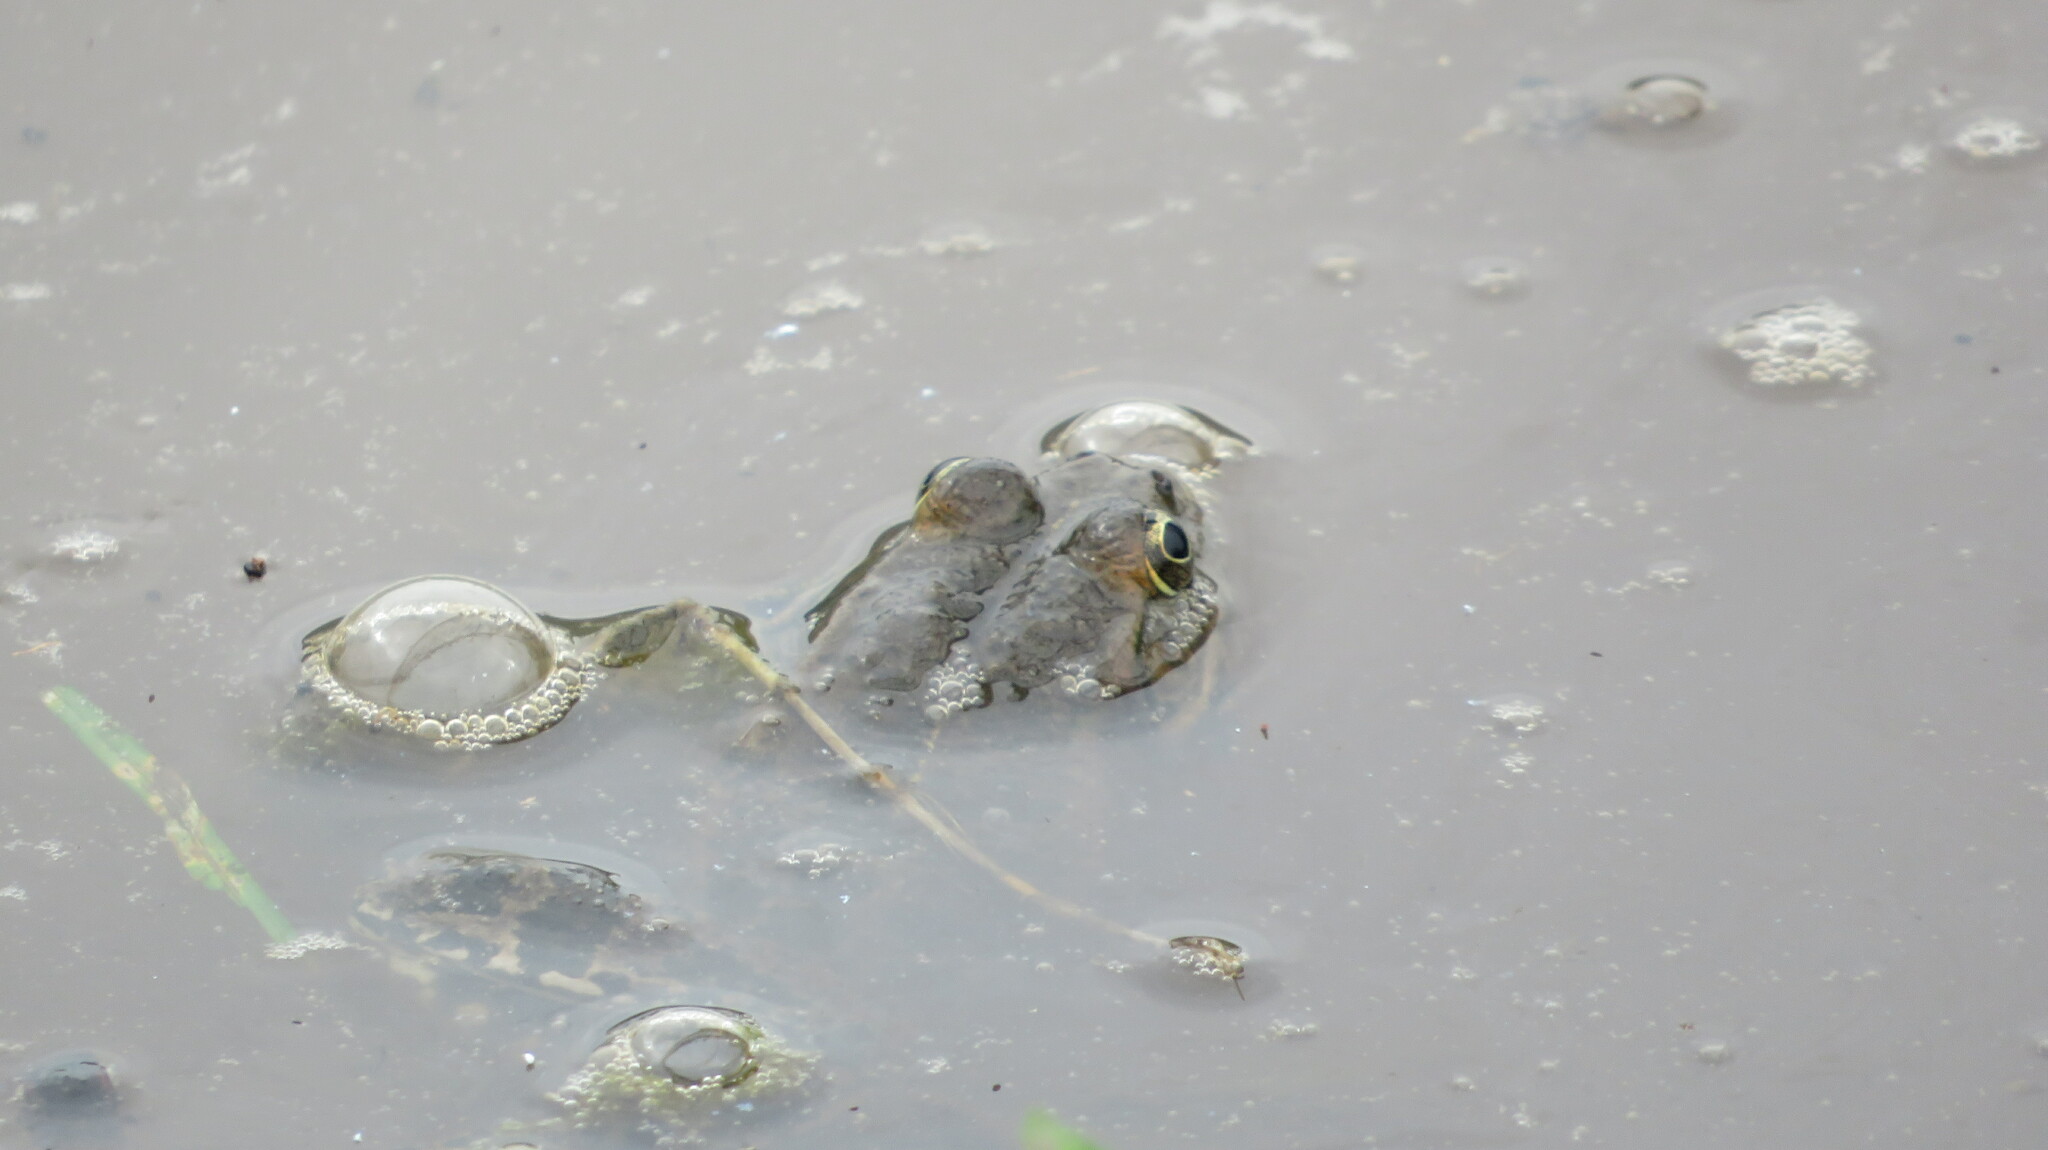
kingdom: Animalia
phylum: Chordata
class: Amphibia
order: Anura
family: Ranidae
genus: Pelophylax
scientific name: Pelophylax ridibundus
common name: Marsh frog
